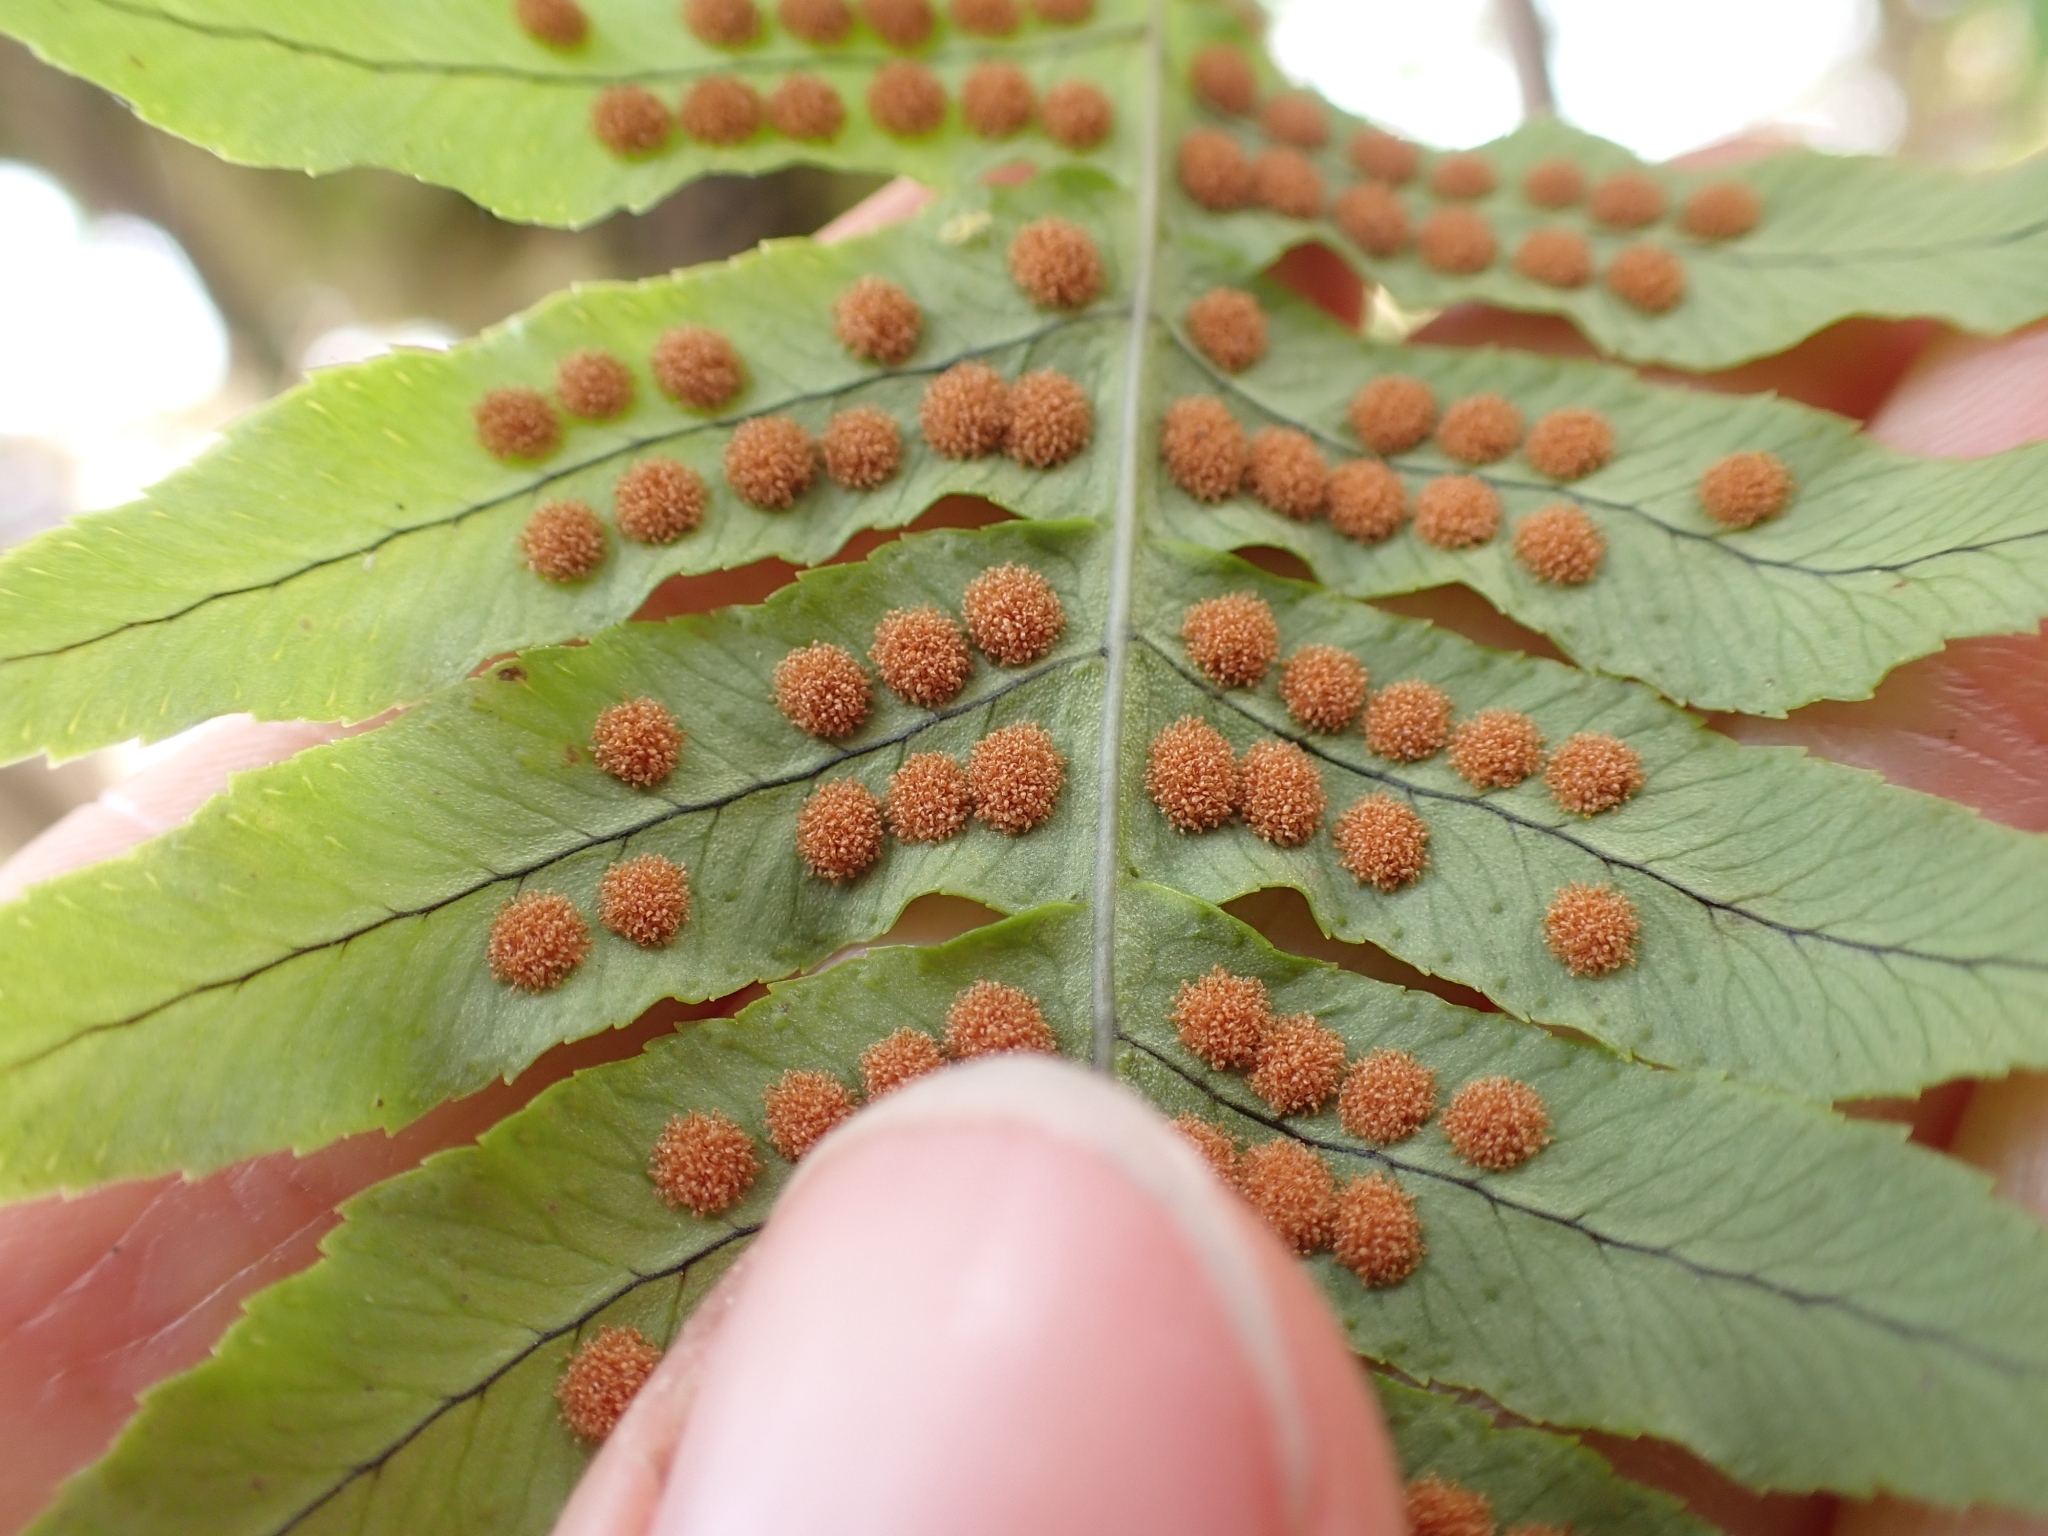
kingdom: Plantae
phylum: Tracheophyta
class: Polypodiopsida
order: Polypodiales
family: Polypodiaceae
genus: Polypodium
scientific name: Polypodium glycyrrhiza
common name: Licorice fern
